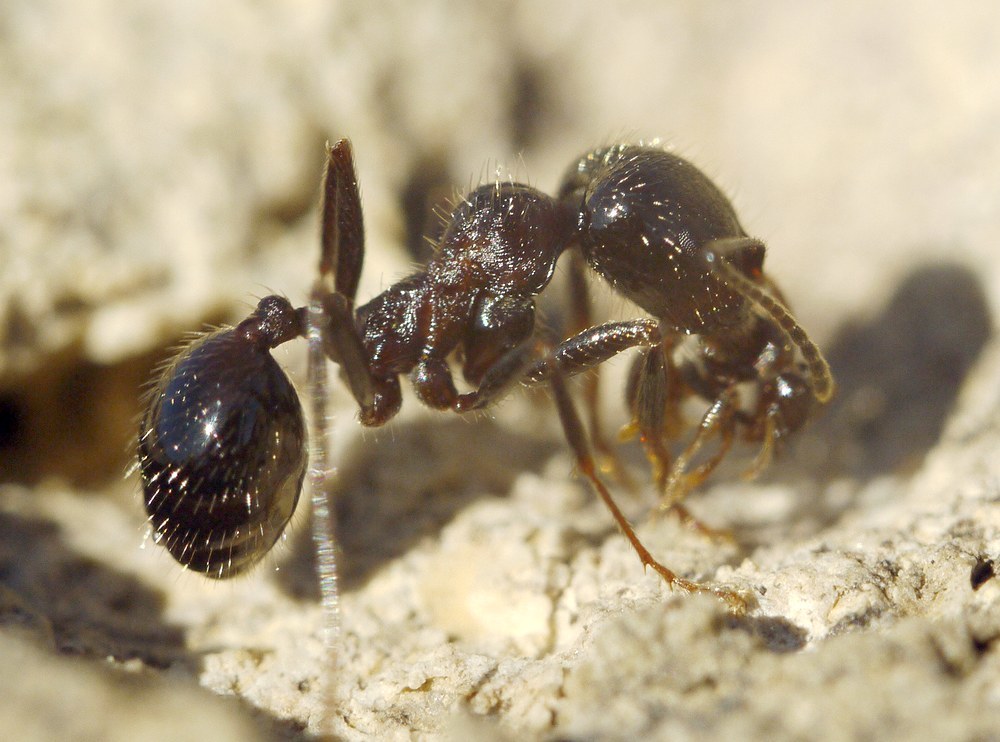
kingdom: Animalia
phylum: Arthropoda
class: Insecta
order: Hymenoptera
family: Formicidae
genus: Messor
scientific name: Messor structor
